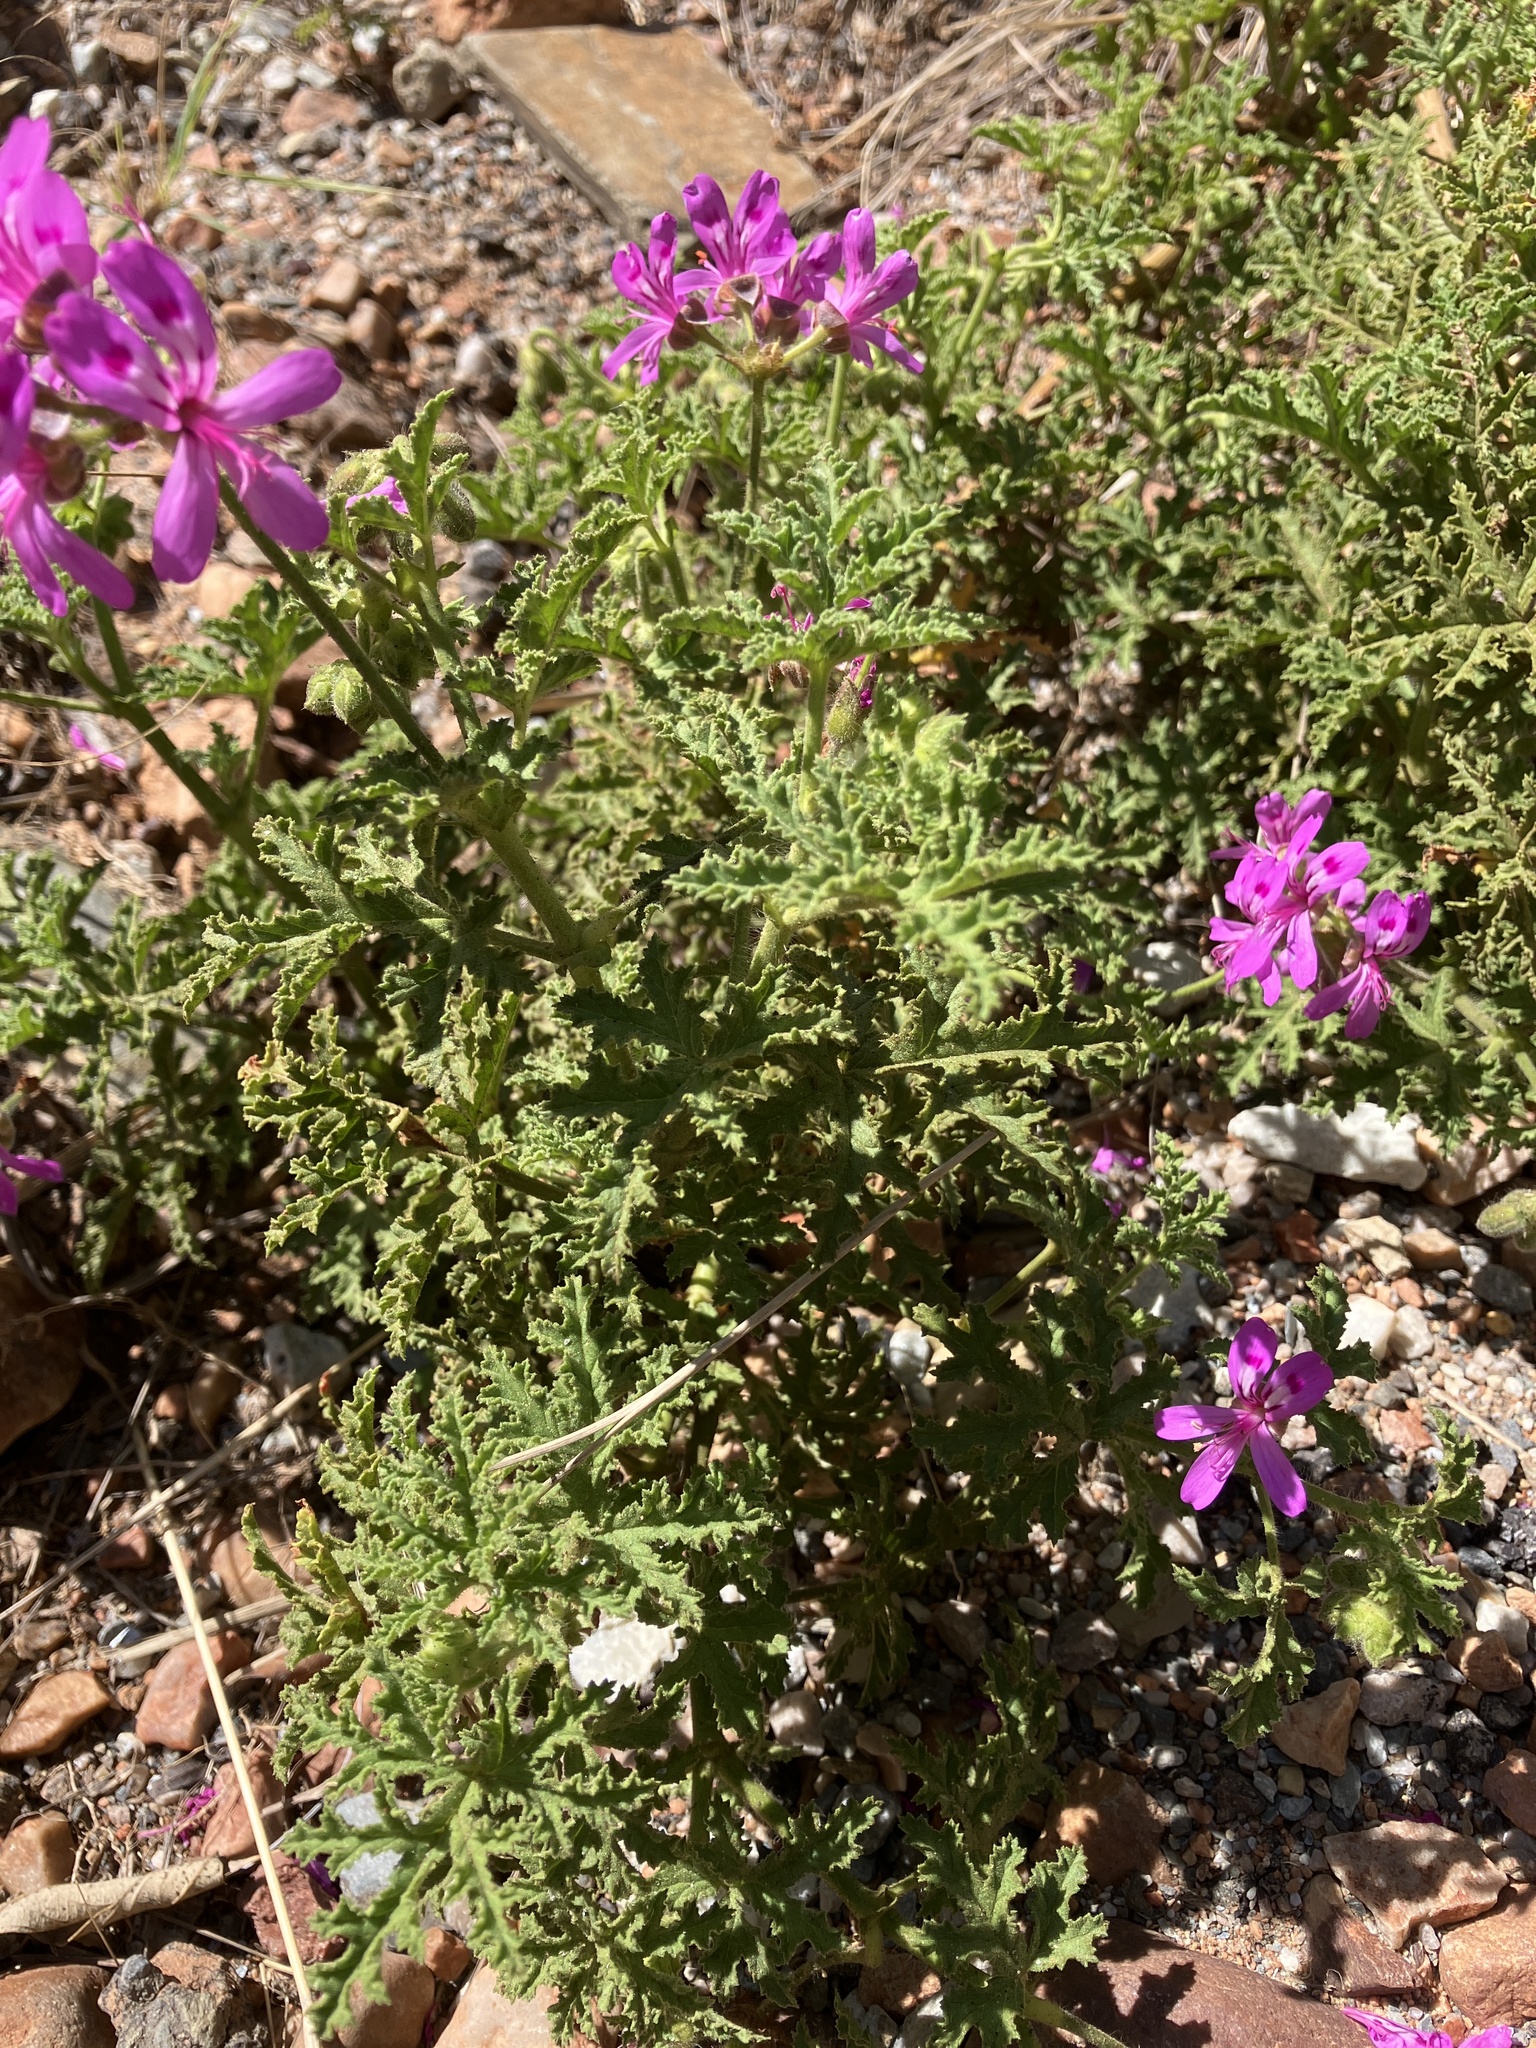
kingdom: Plantae
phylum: Tracheophyta
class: Magnoliopsida
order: Geraniales
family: Geraniaceae
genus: Pelargonium
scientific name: Pelargonium glutinosum
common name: Pheasant-foot geranium
